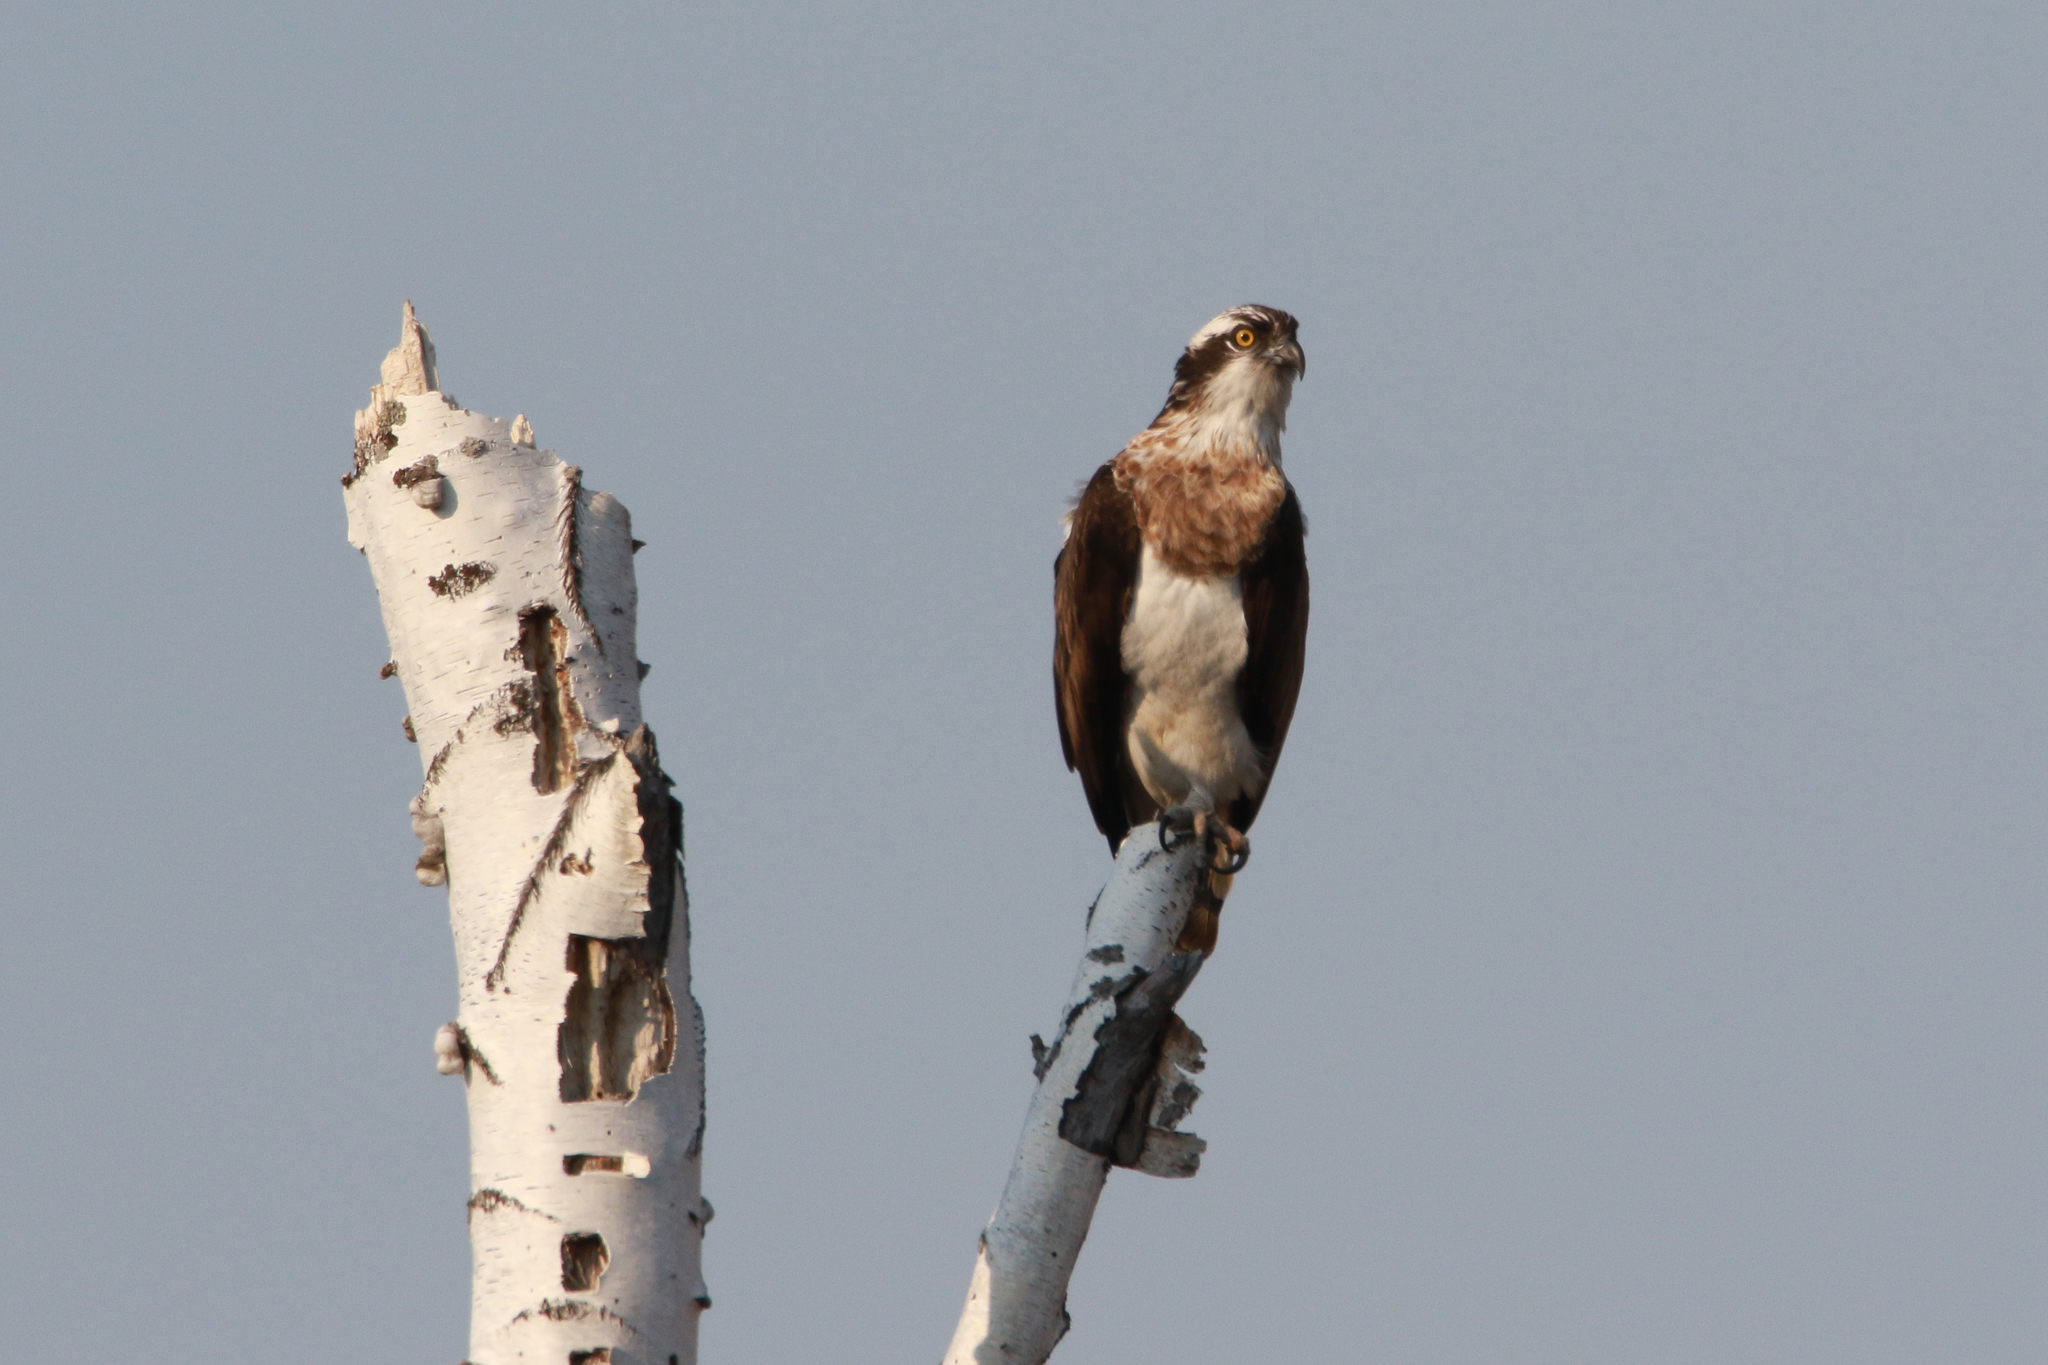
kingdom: Animalia
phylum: Chordata
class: Aves
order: Accipitriformes
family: Pandionidae
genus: Pandion
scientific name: Pandion haliaetus
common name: Osprey
